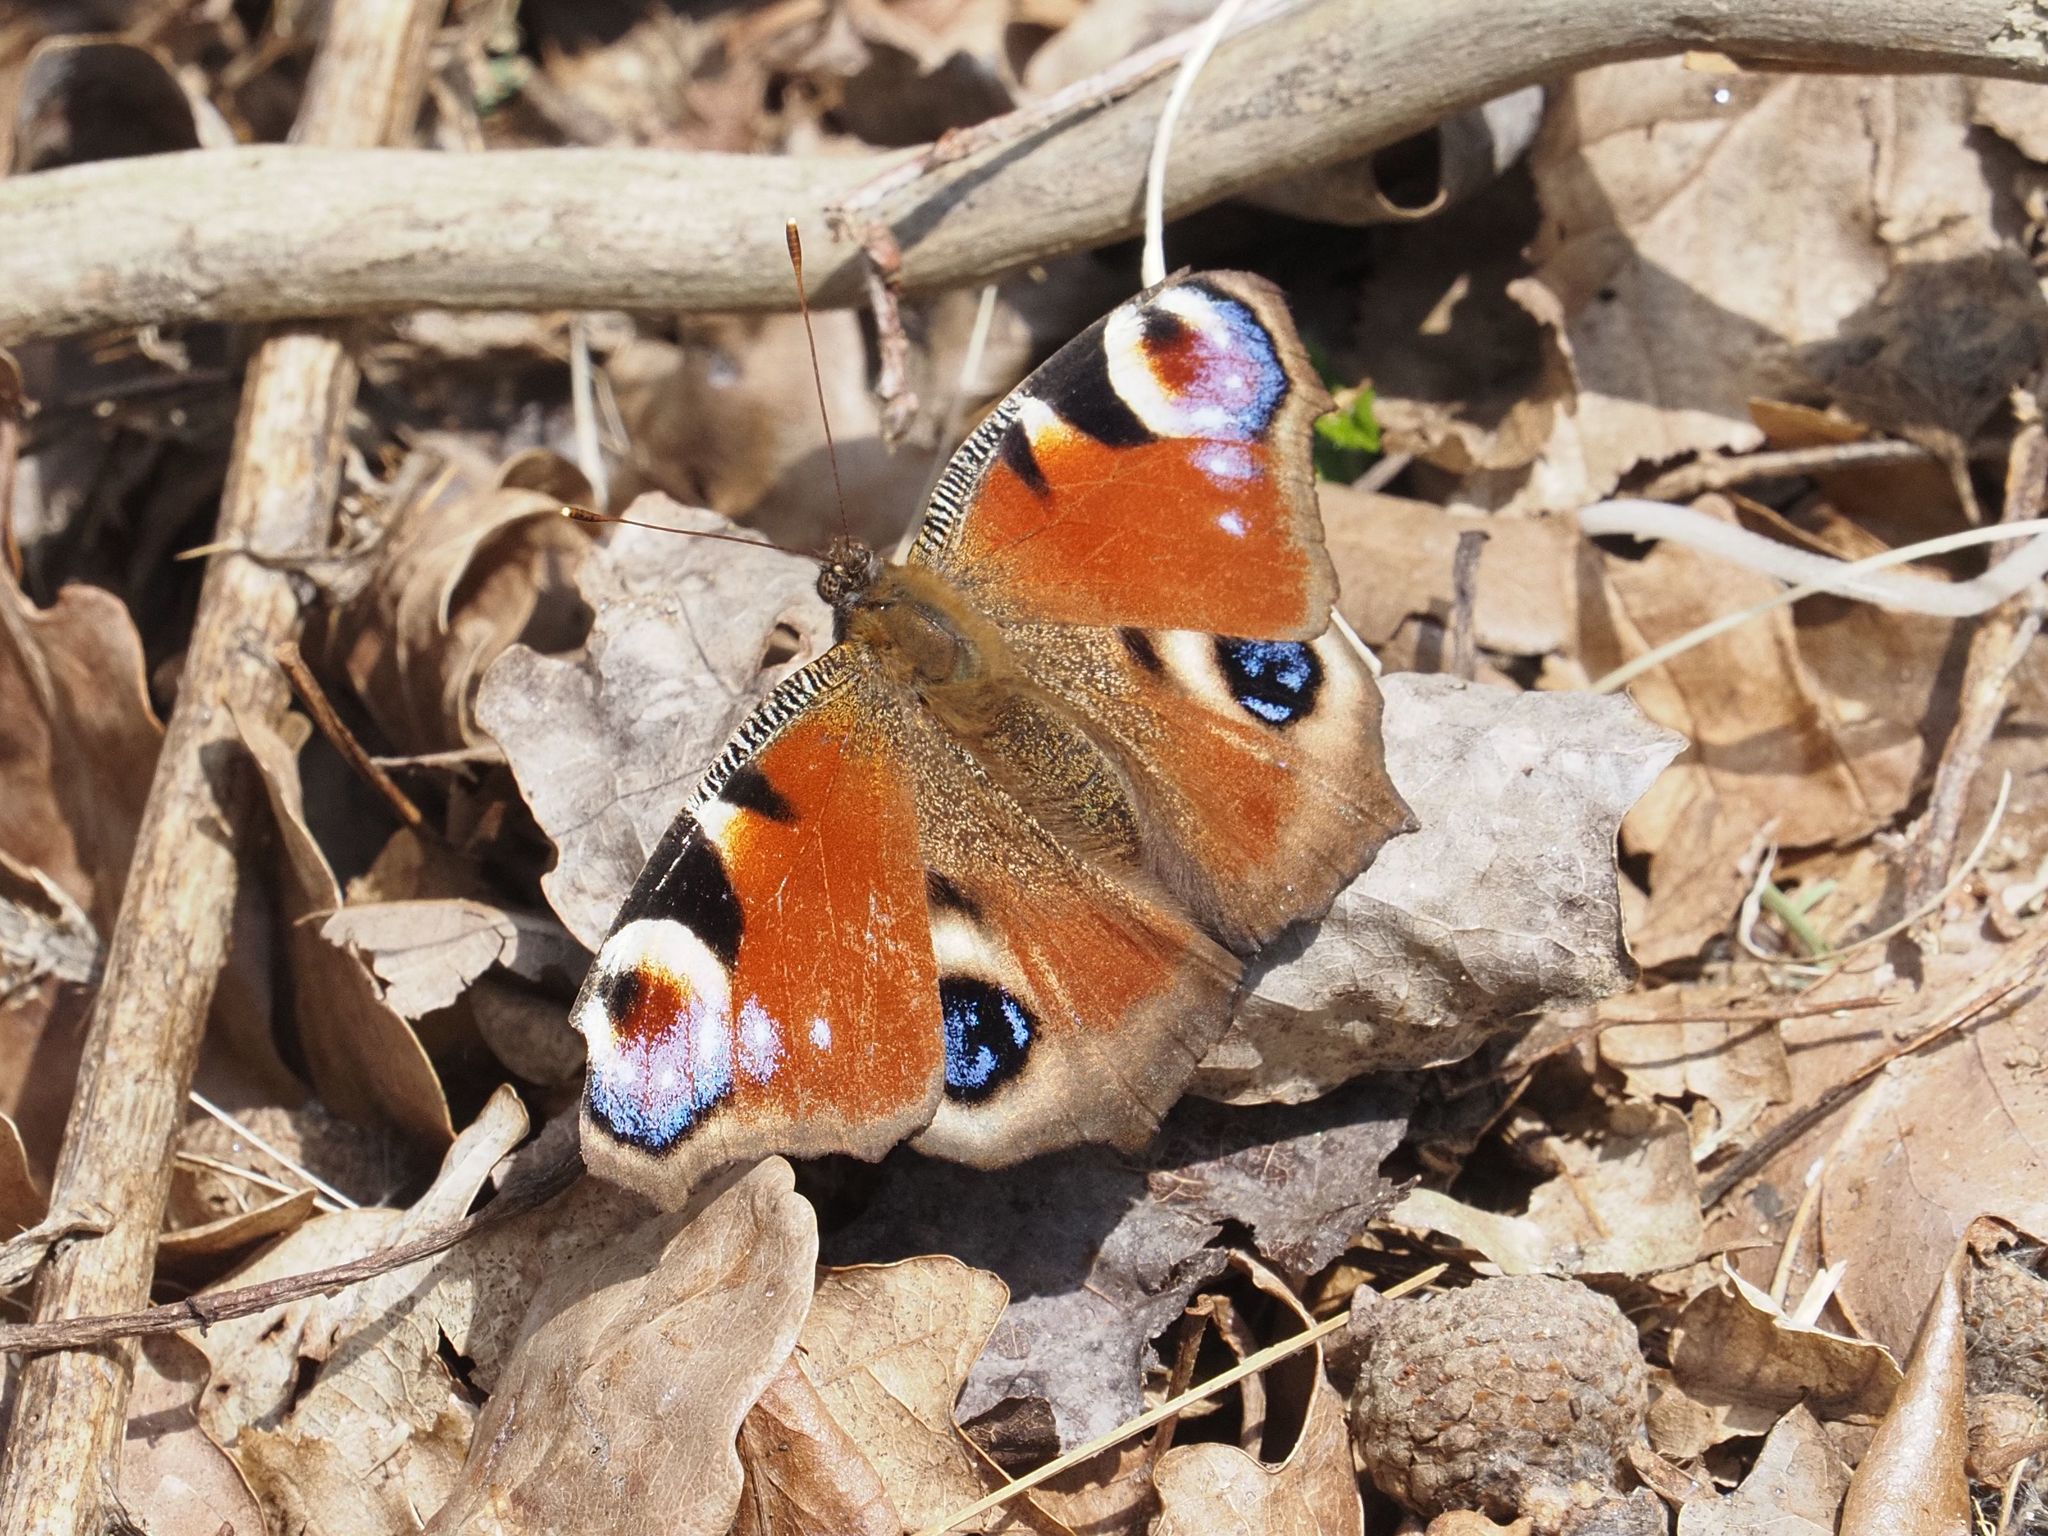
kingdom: Animalia
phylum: Arthropoda
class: Insecta
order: Lepidoptera
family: Nymphalidae
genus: Aglais
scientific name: Aglais io
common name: Peacock
